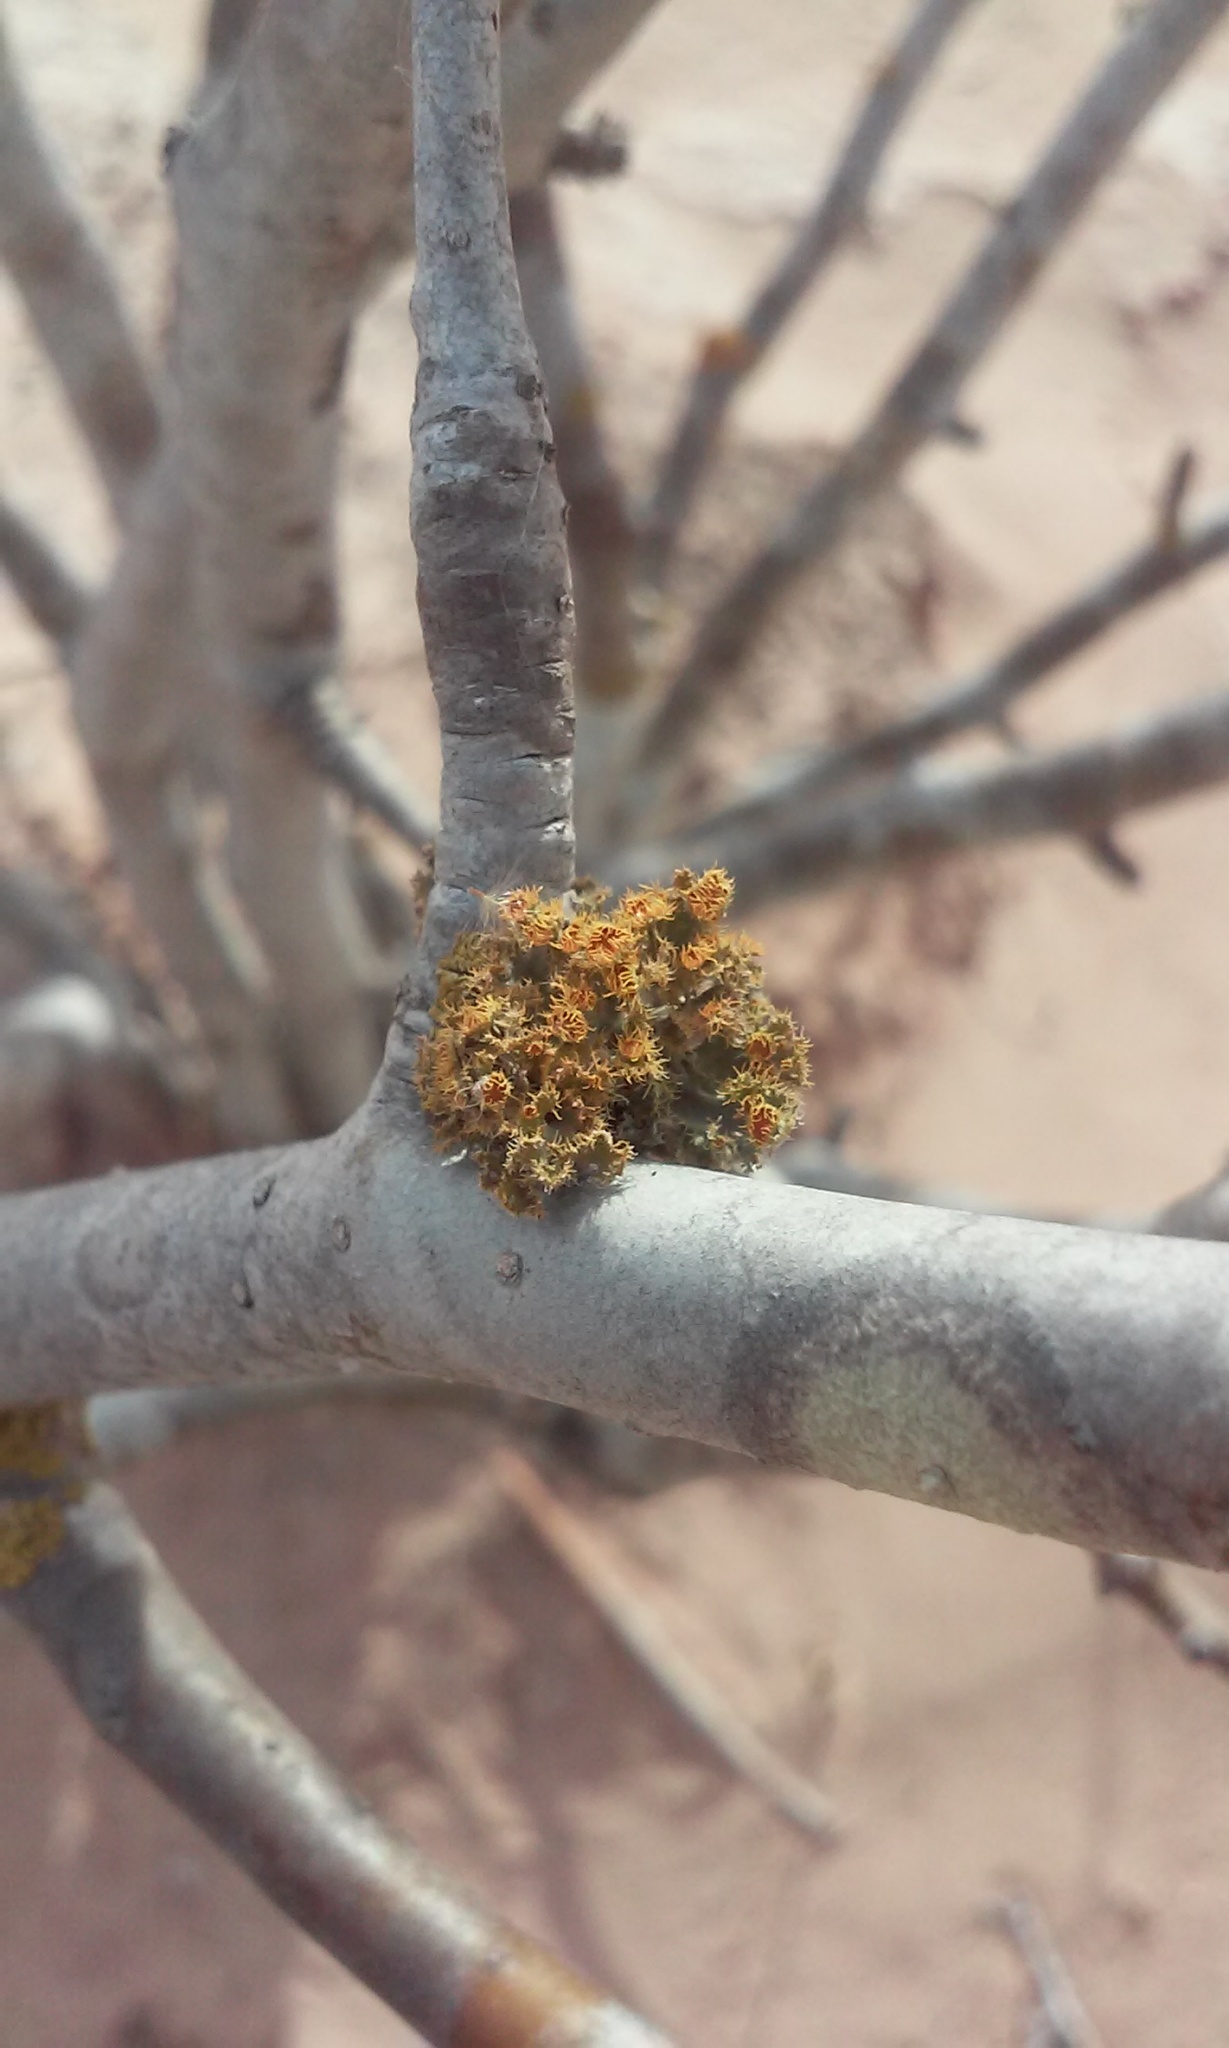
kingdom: Fungi
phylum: Ascomycota
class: Lecanoromycetes
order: Teloschistales
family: Teloschistaceae
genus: Niorma
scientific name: Niorma chrysophthalma
